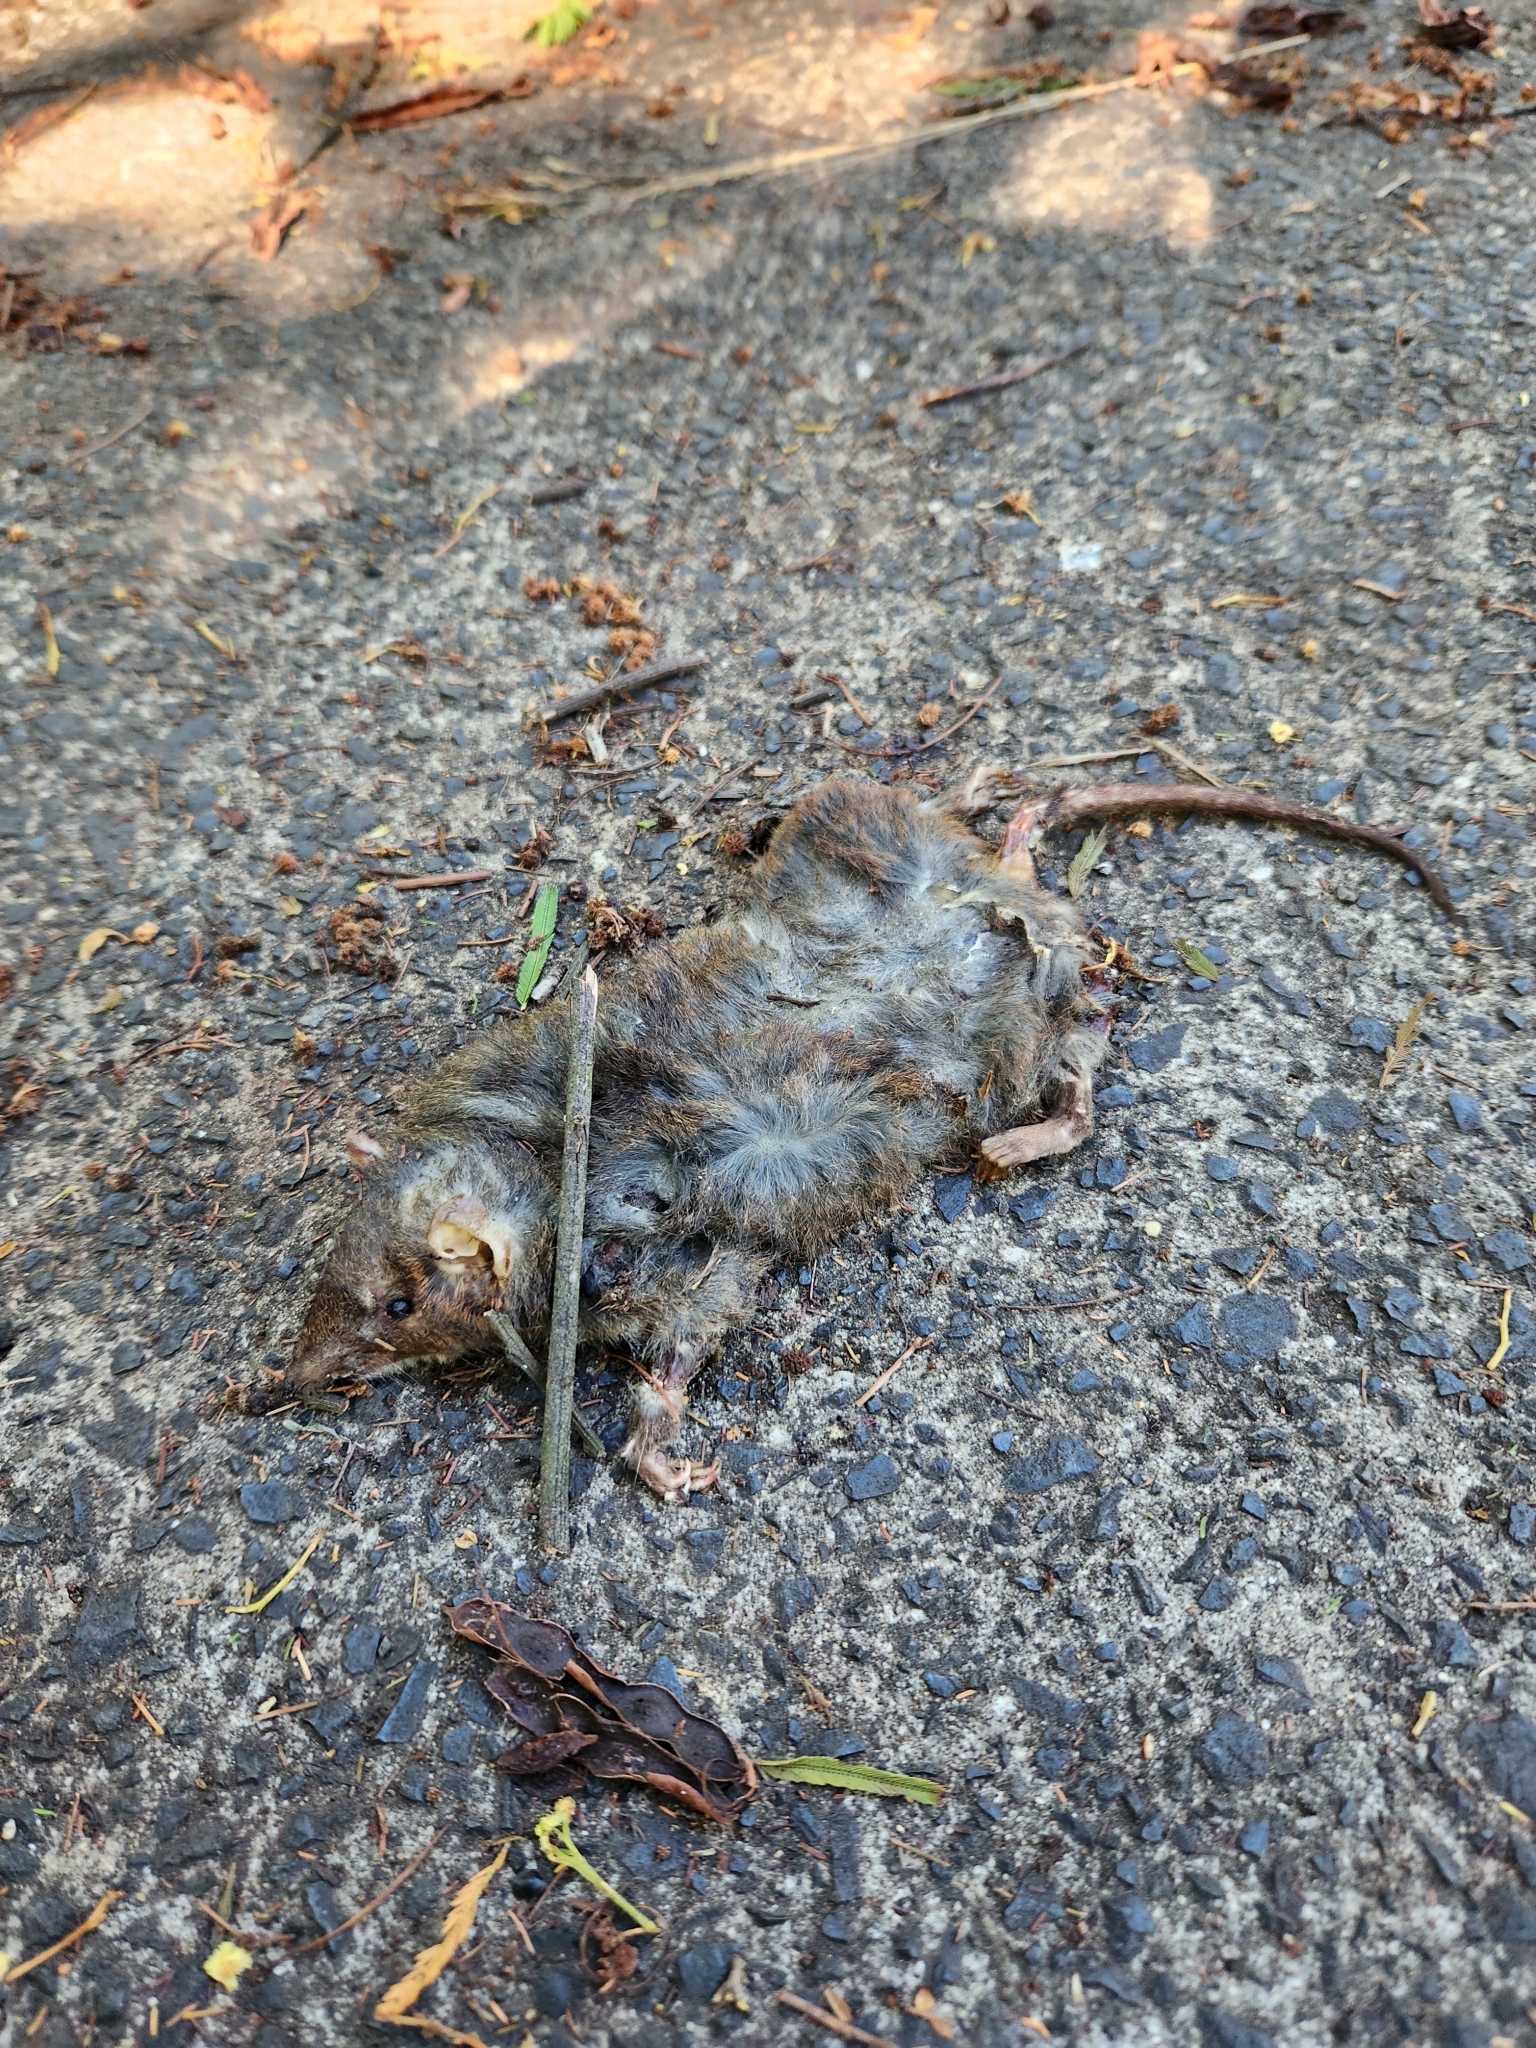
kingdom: Animalia
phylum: Chordata
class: Mammalia
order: Dasyuromorphia
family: Dasyuridae
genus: Antechinus
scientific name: Antechinus stuartii
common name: Brown antechinus
